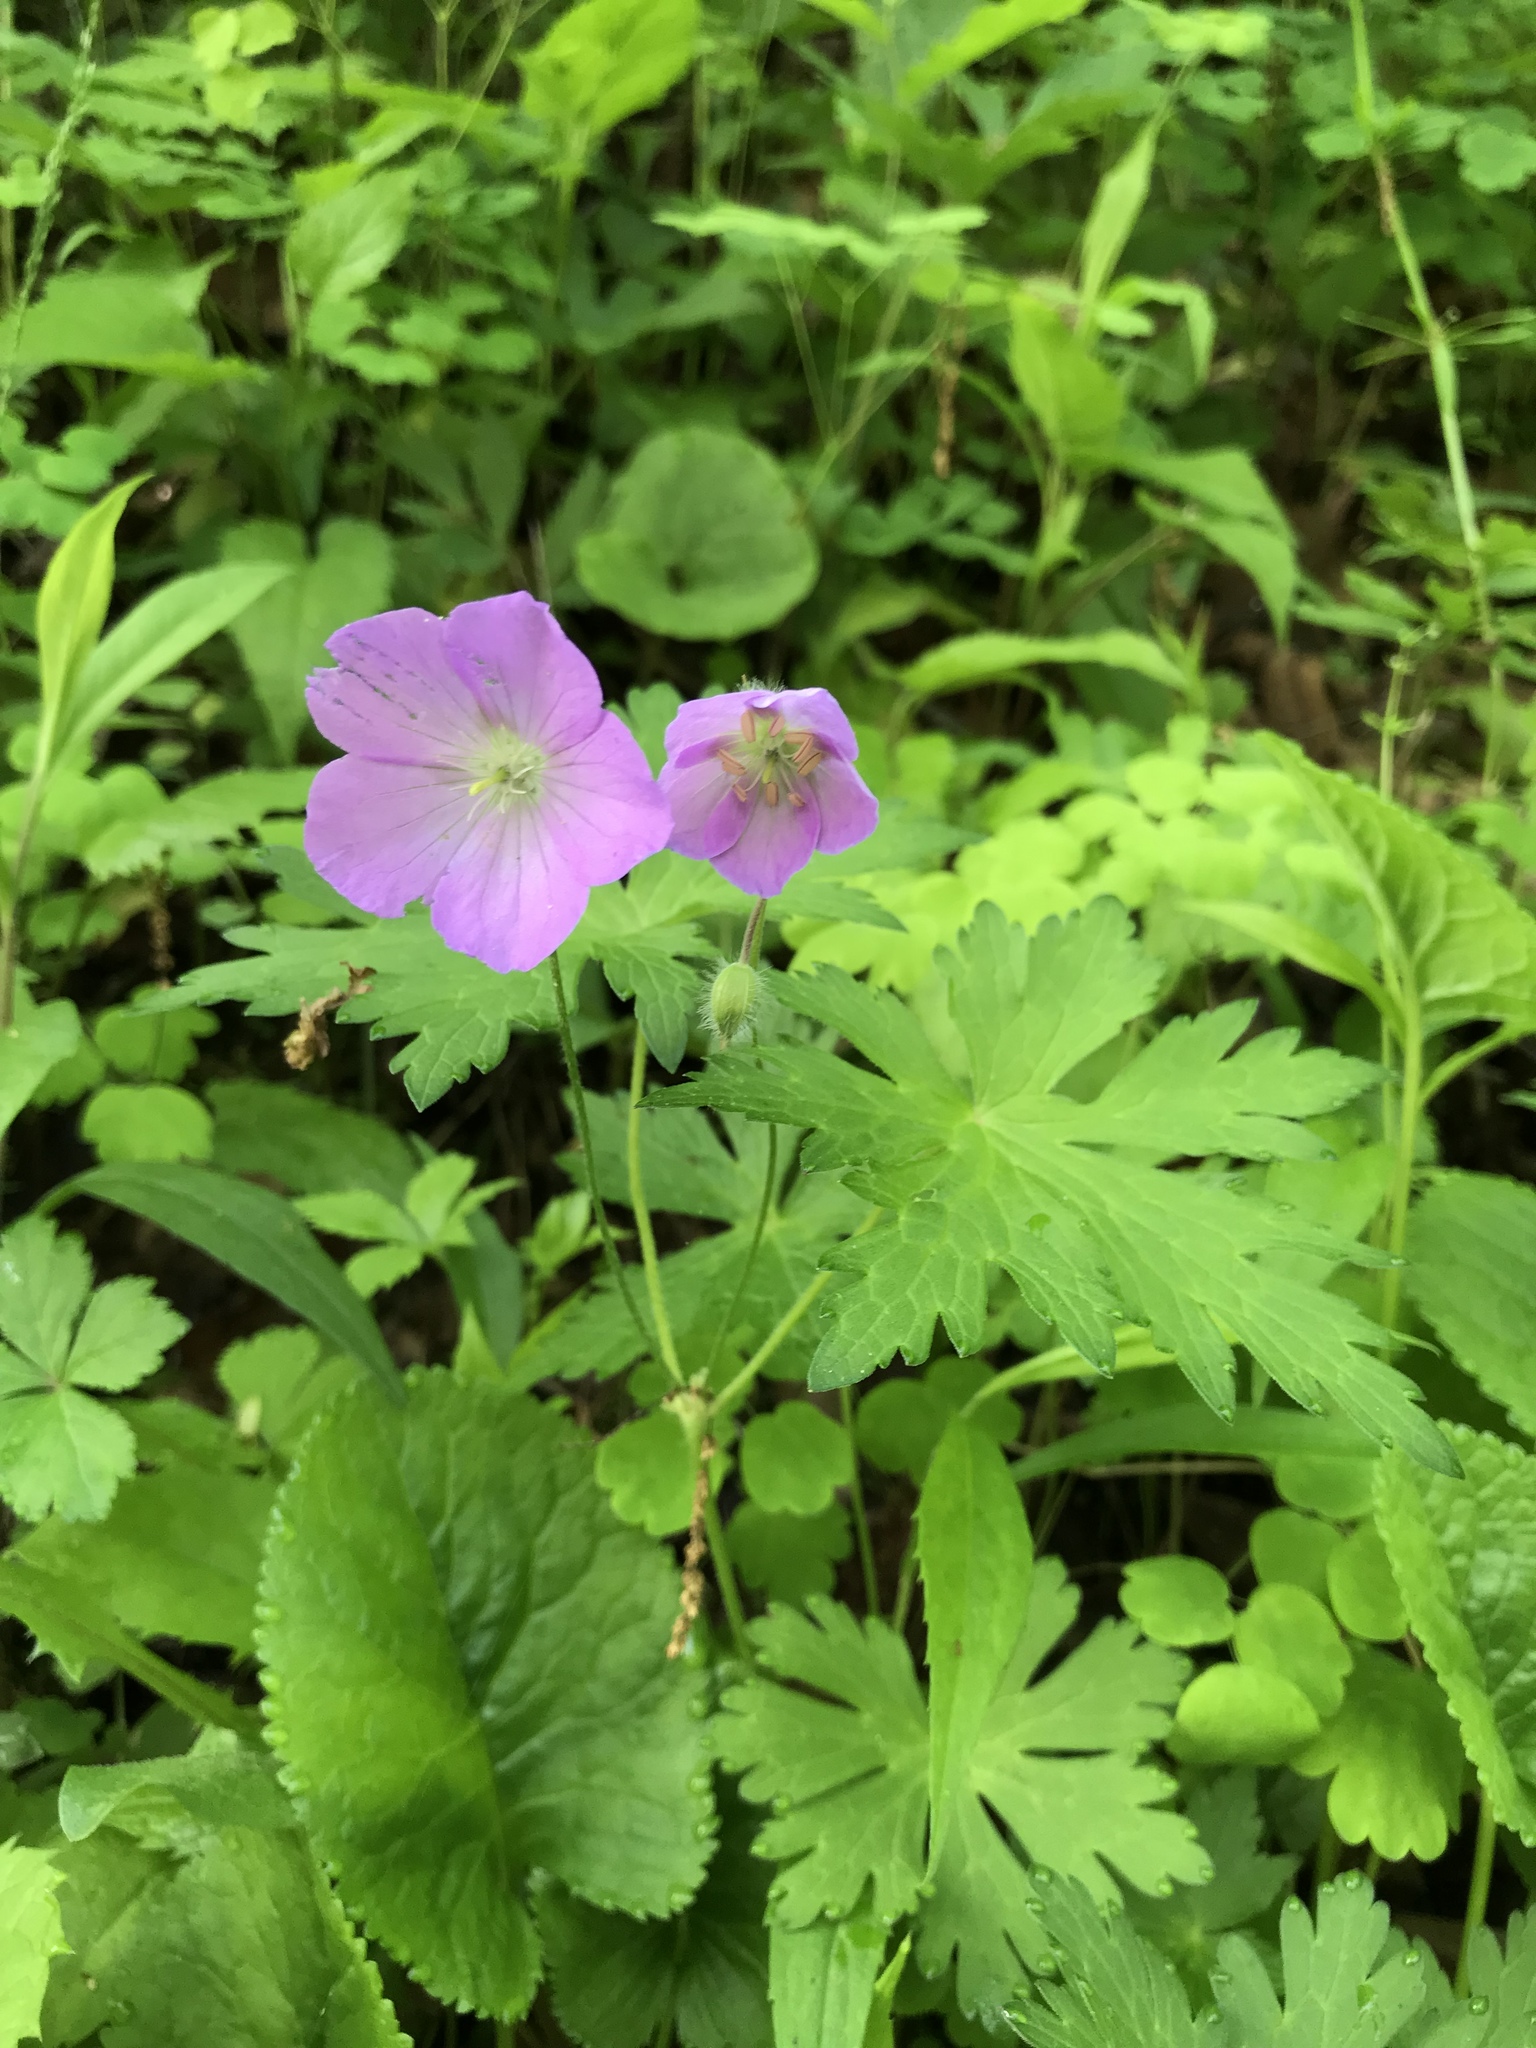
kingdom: Plantae
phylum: Tracheophyta
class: Magnoliopsida
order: Geraniales
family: Geraniaceae
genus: Geranium
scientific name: Geranium maculatum
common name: Spotted geranium
